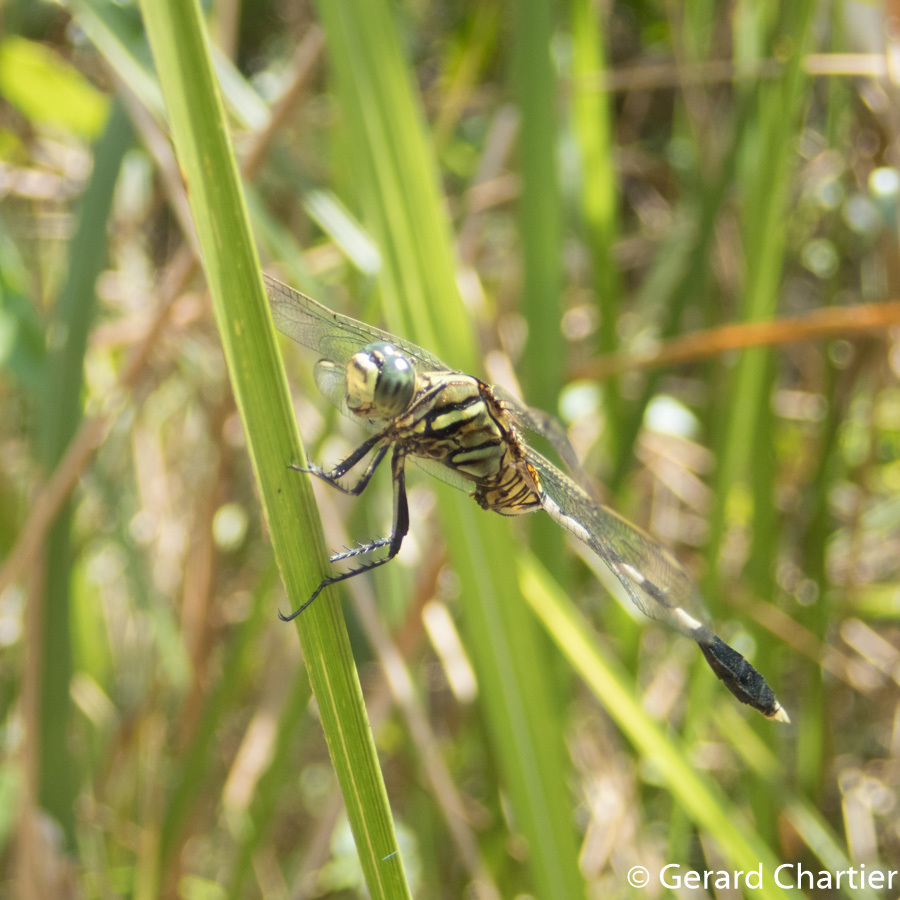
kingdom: Animalia
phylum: Arthropoda
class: Insecta
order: Odonata
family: Libellulidae
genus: Orthetrum
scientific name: Orthetrum sabina
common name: Slender skimmer
